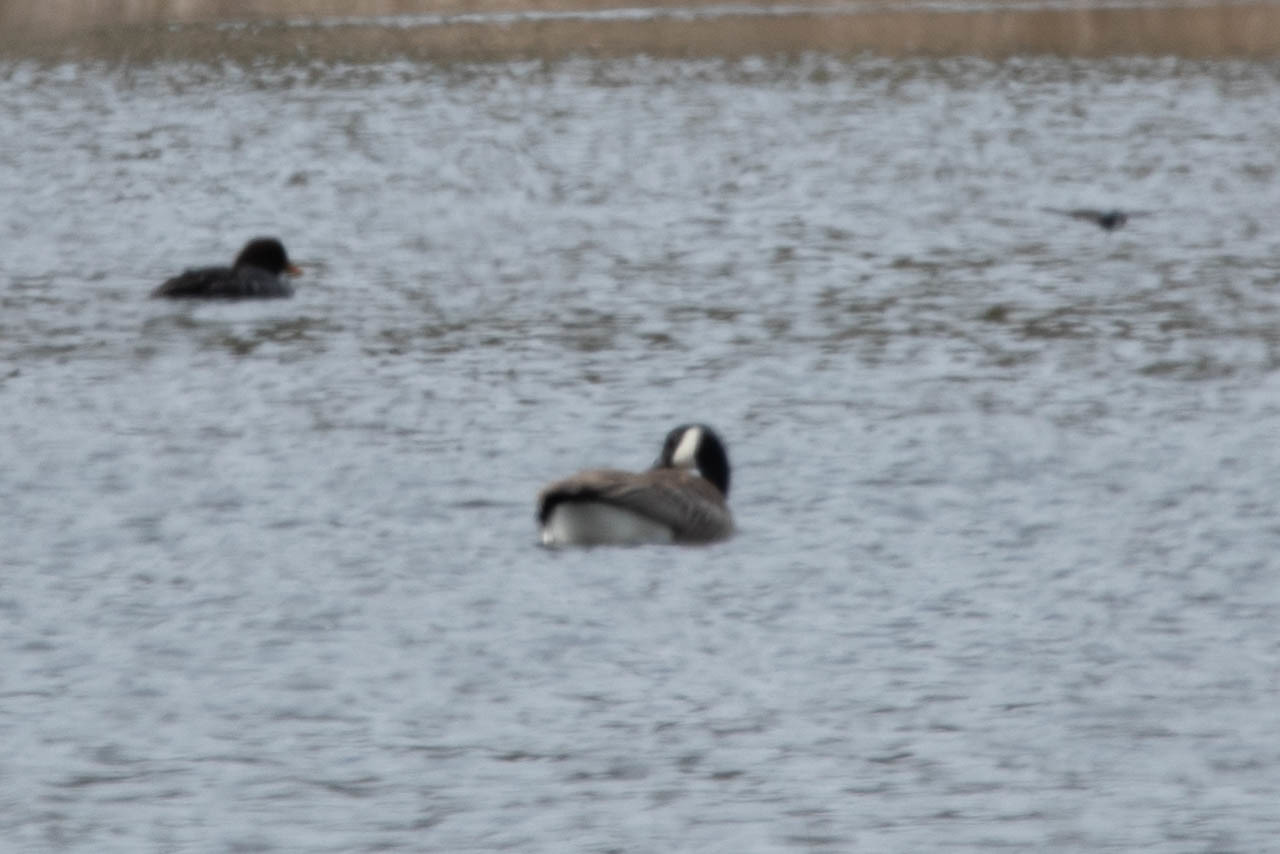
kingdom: Animalia
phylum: Chordata
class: Aves
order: Anseriformes
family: Anatidae
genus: Branta
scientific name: Branta canadensis
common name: Canada goose
